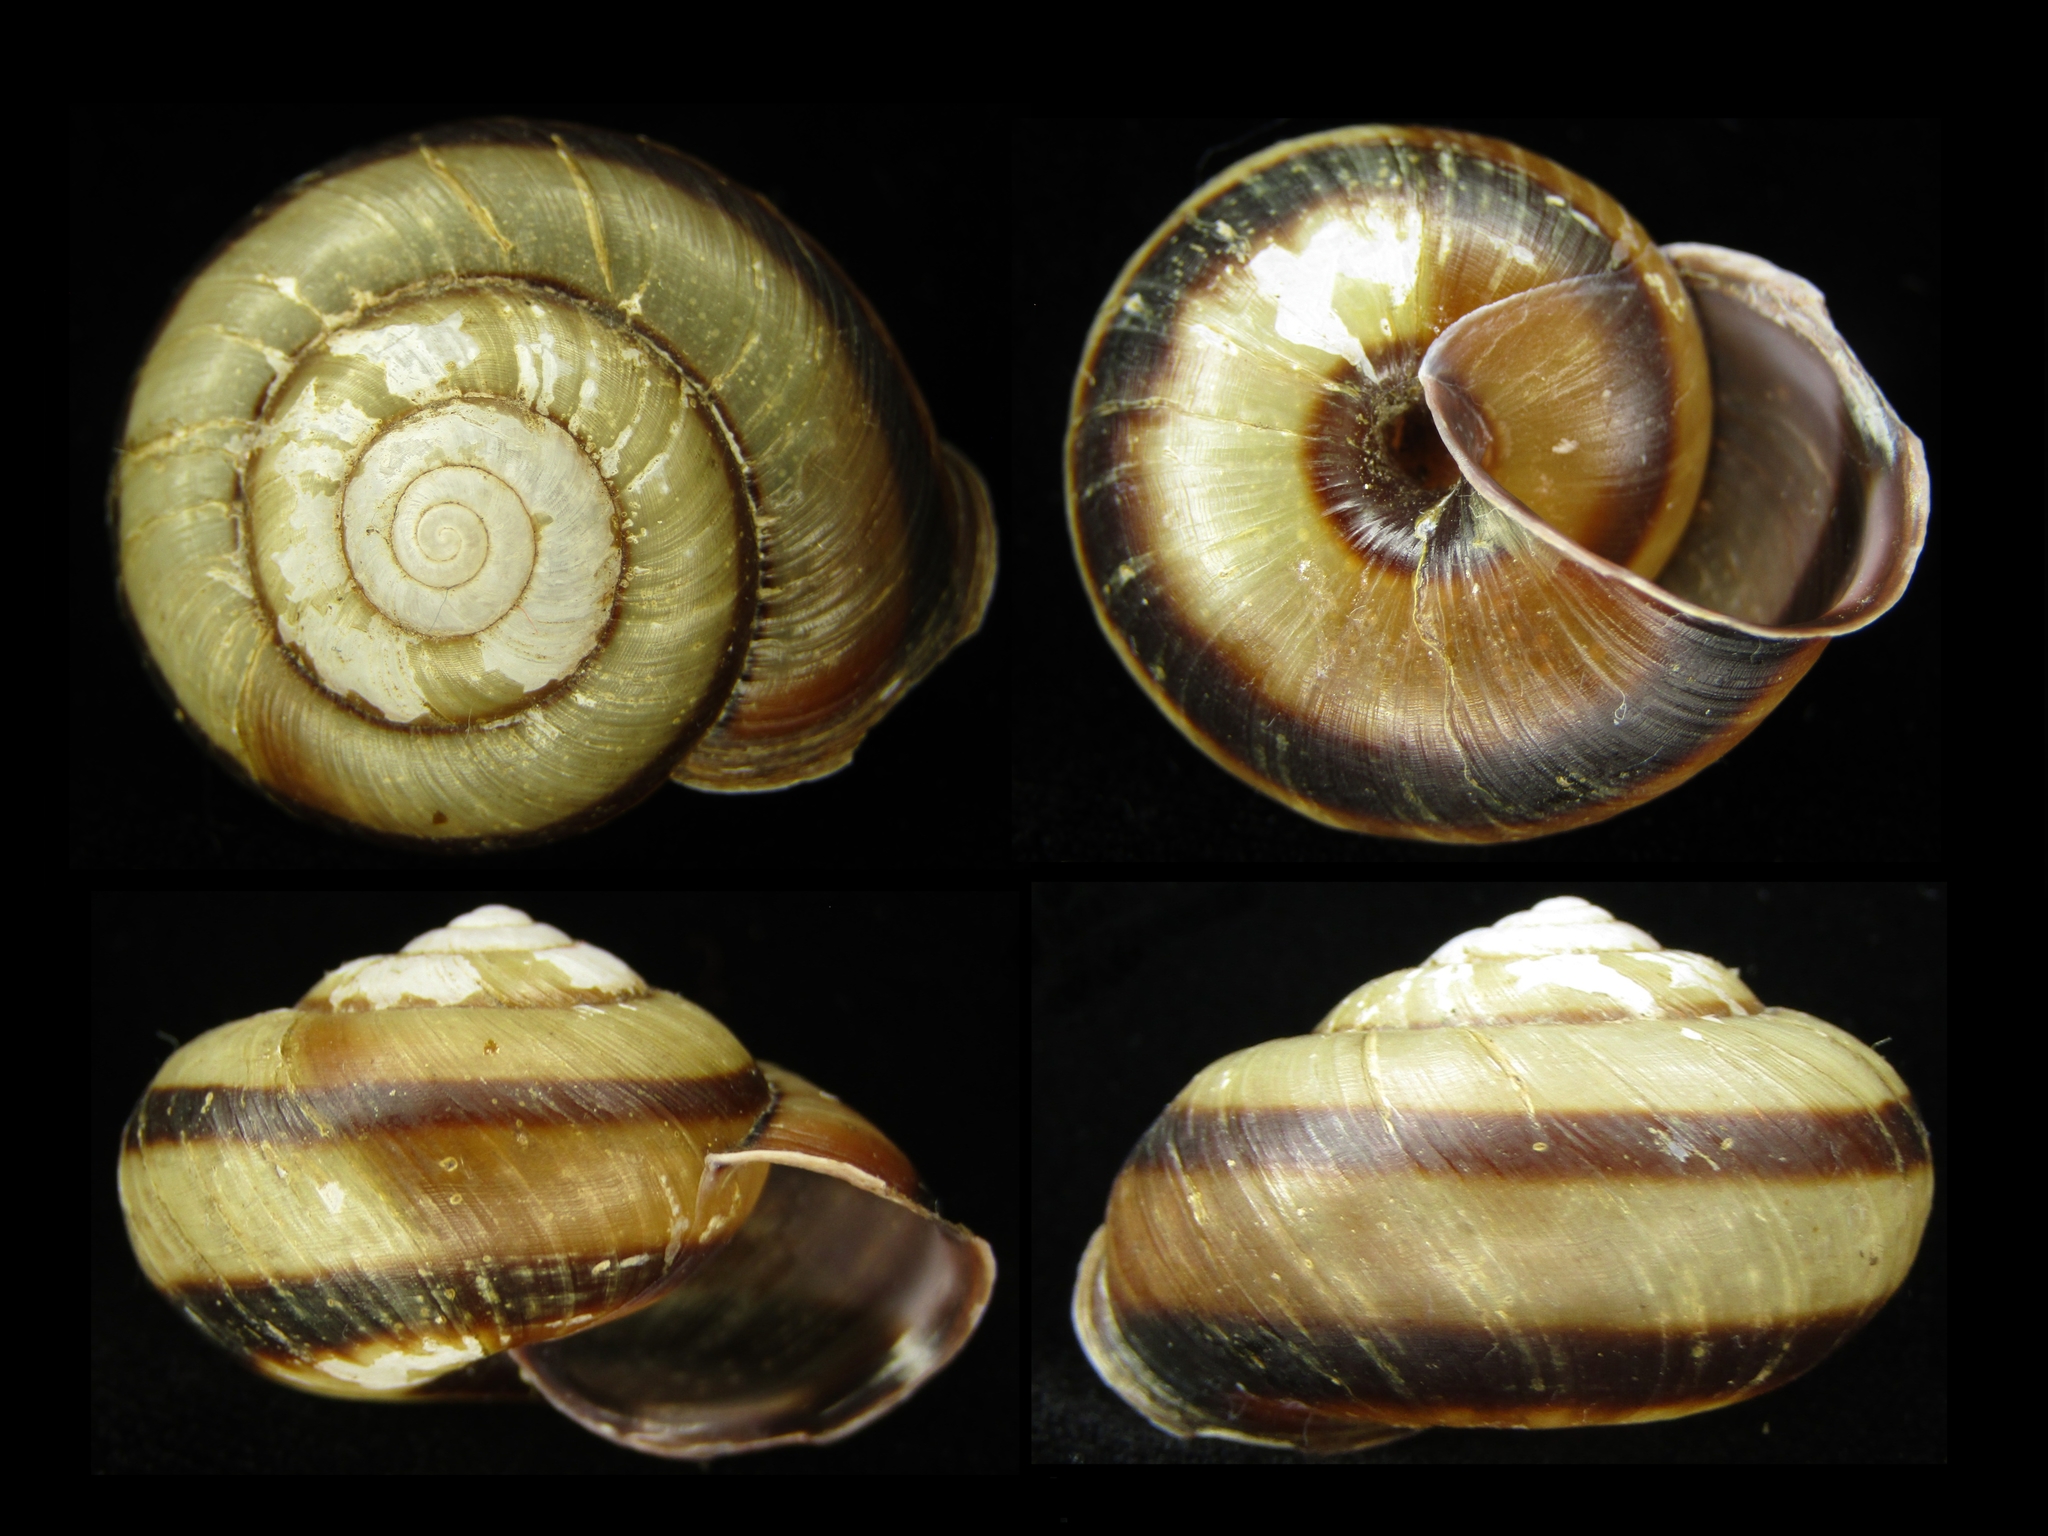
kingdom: Animalia
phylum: Mollusca
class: Gastropoda
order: Stylommatophora
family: Camaenidae
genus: Euhadra
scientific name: Euhadra amaliae
